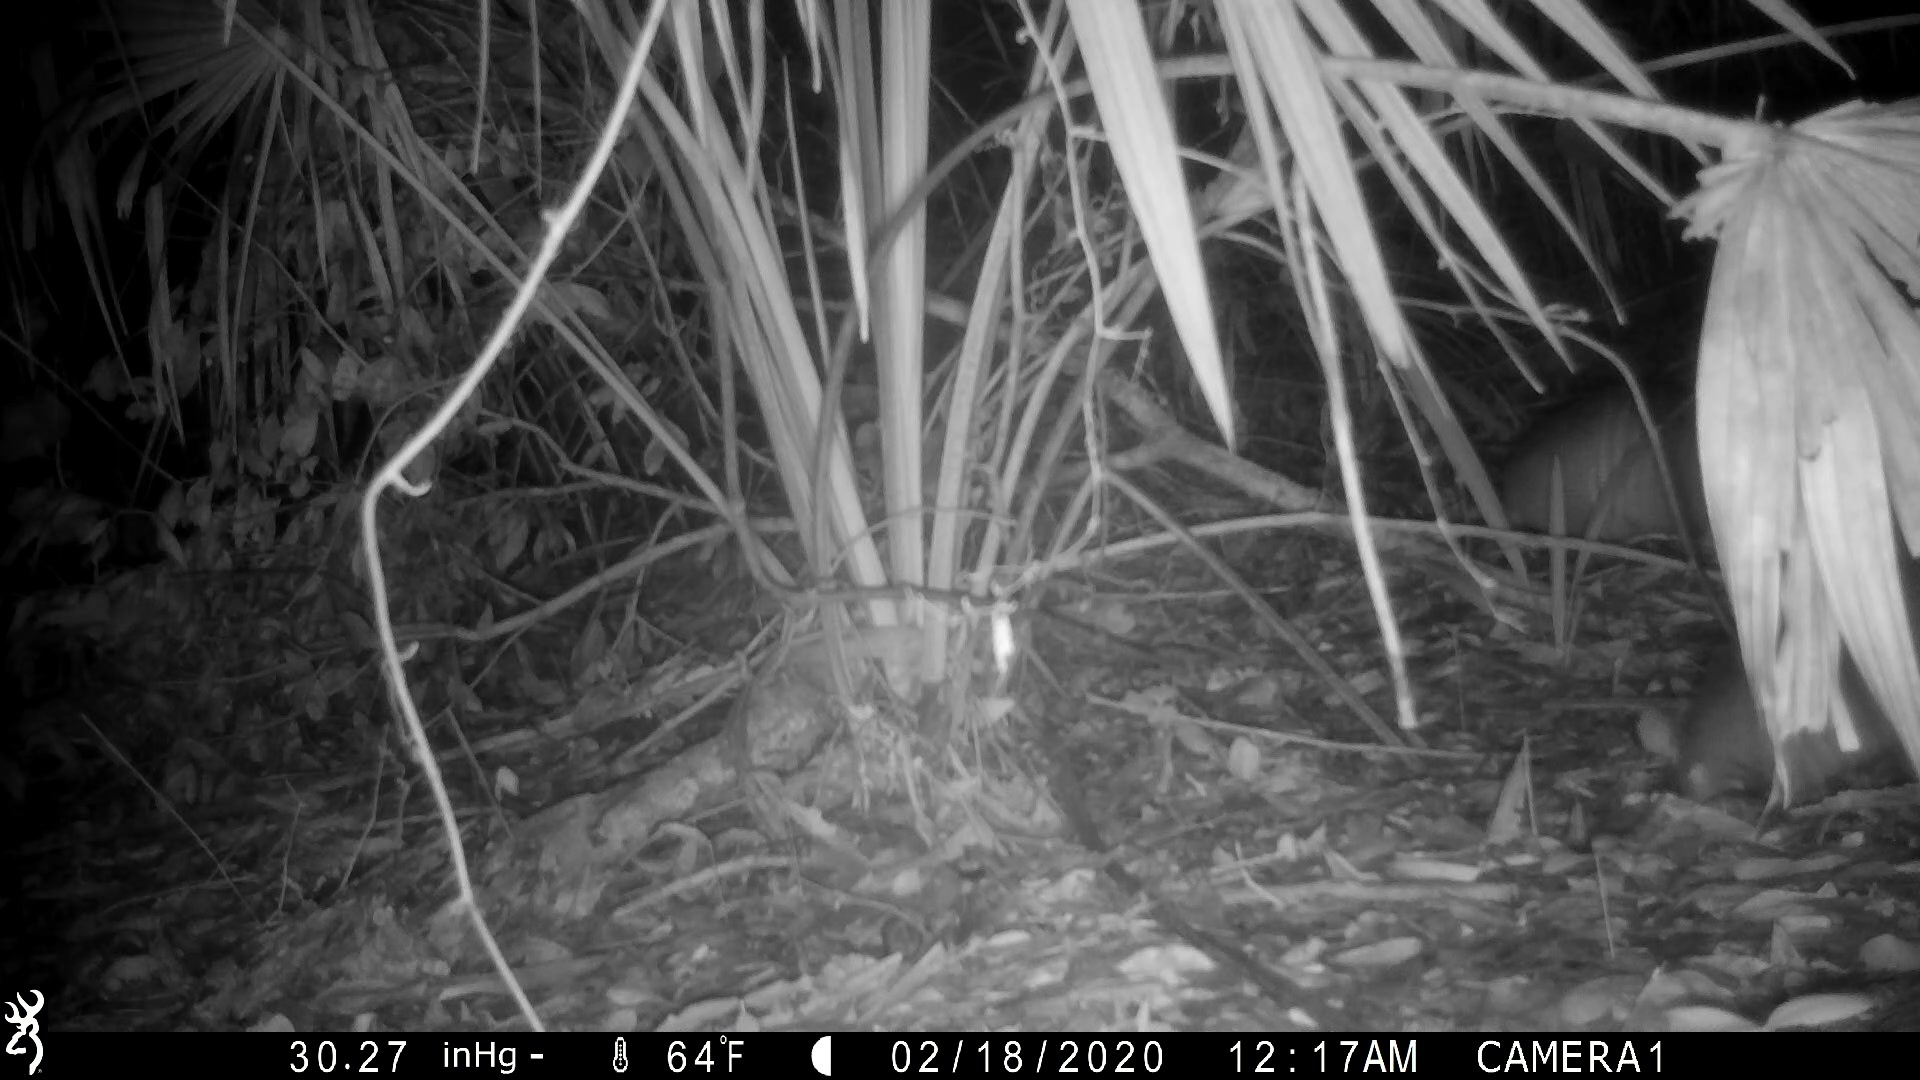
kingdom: Animalia
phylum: Chordata
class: Mammalia
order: Cingulata
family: Dasypodidae
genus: Dasypus
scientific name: Dasypus novemcinctus
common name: Nine-banded armadillo
